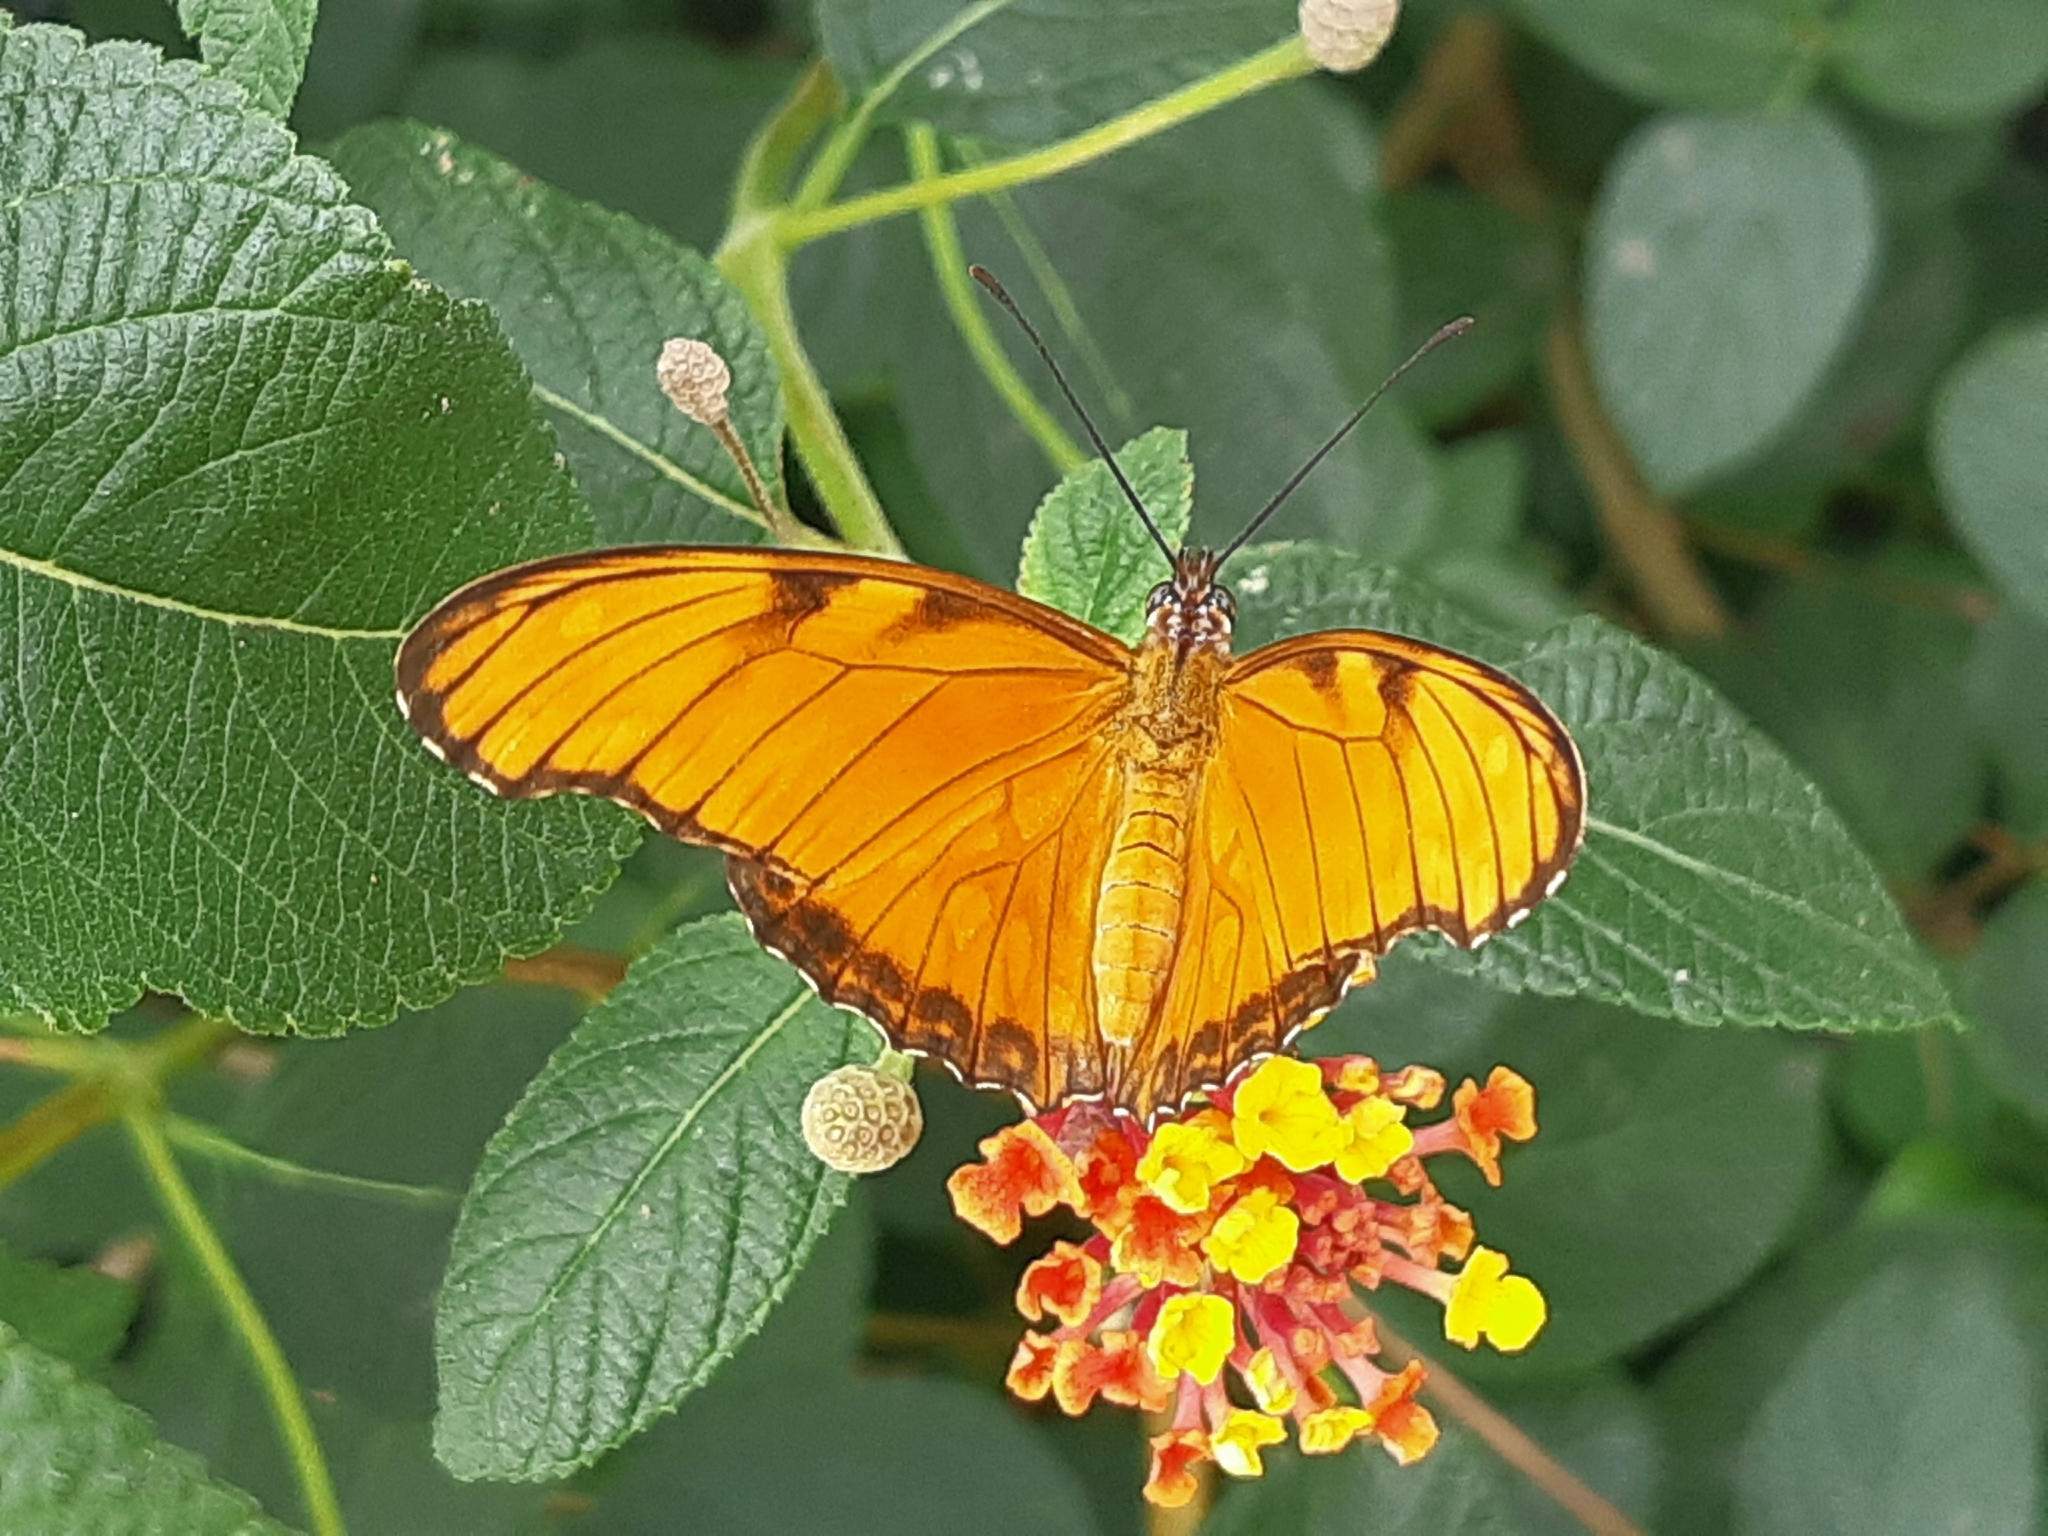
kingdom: Animalia
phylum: Arthropoda
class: Insecta
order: Lepidoptera
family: Nymphalidae
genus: Dione
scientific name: Dione juno
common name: Juno silverspot
